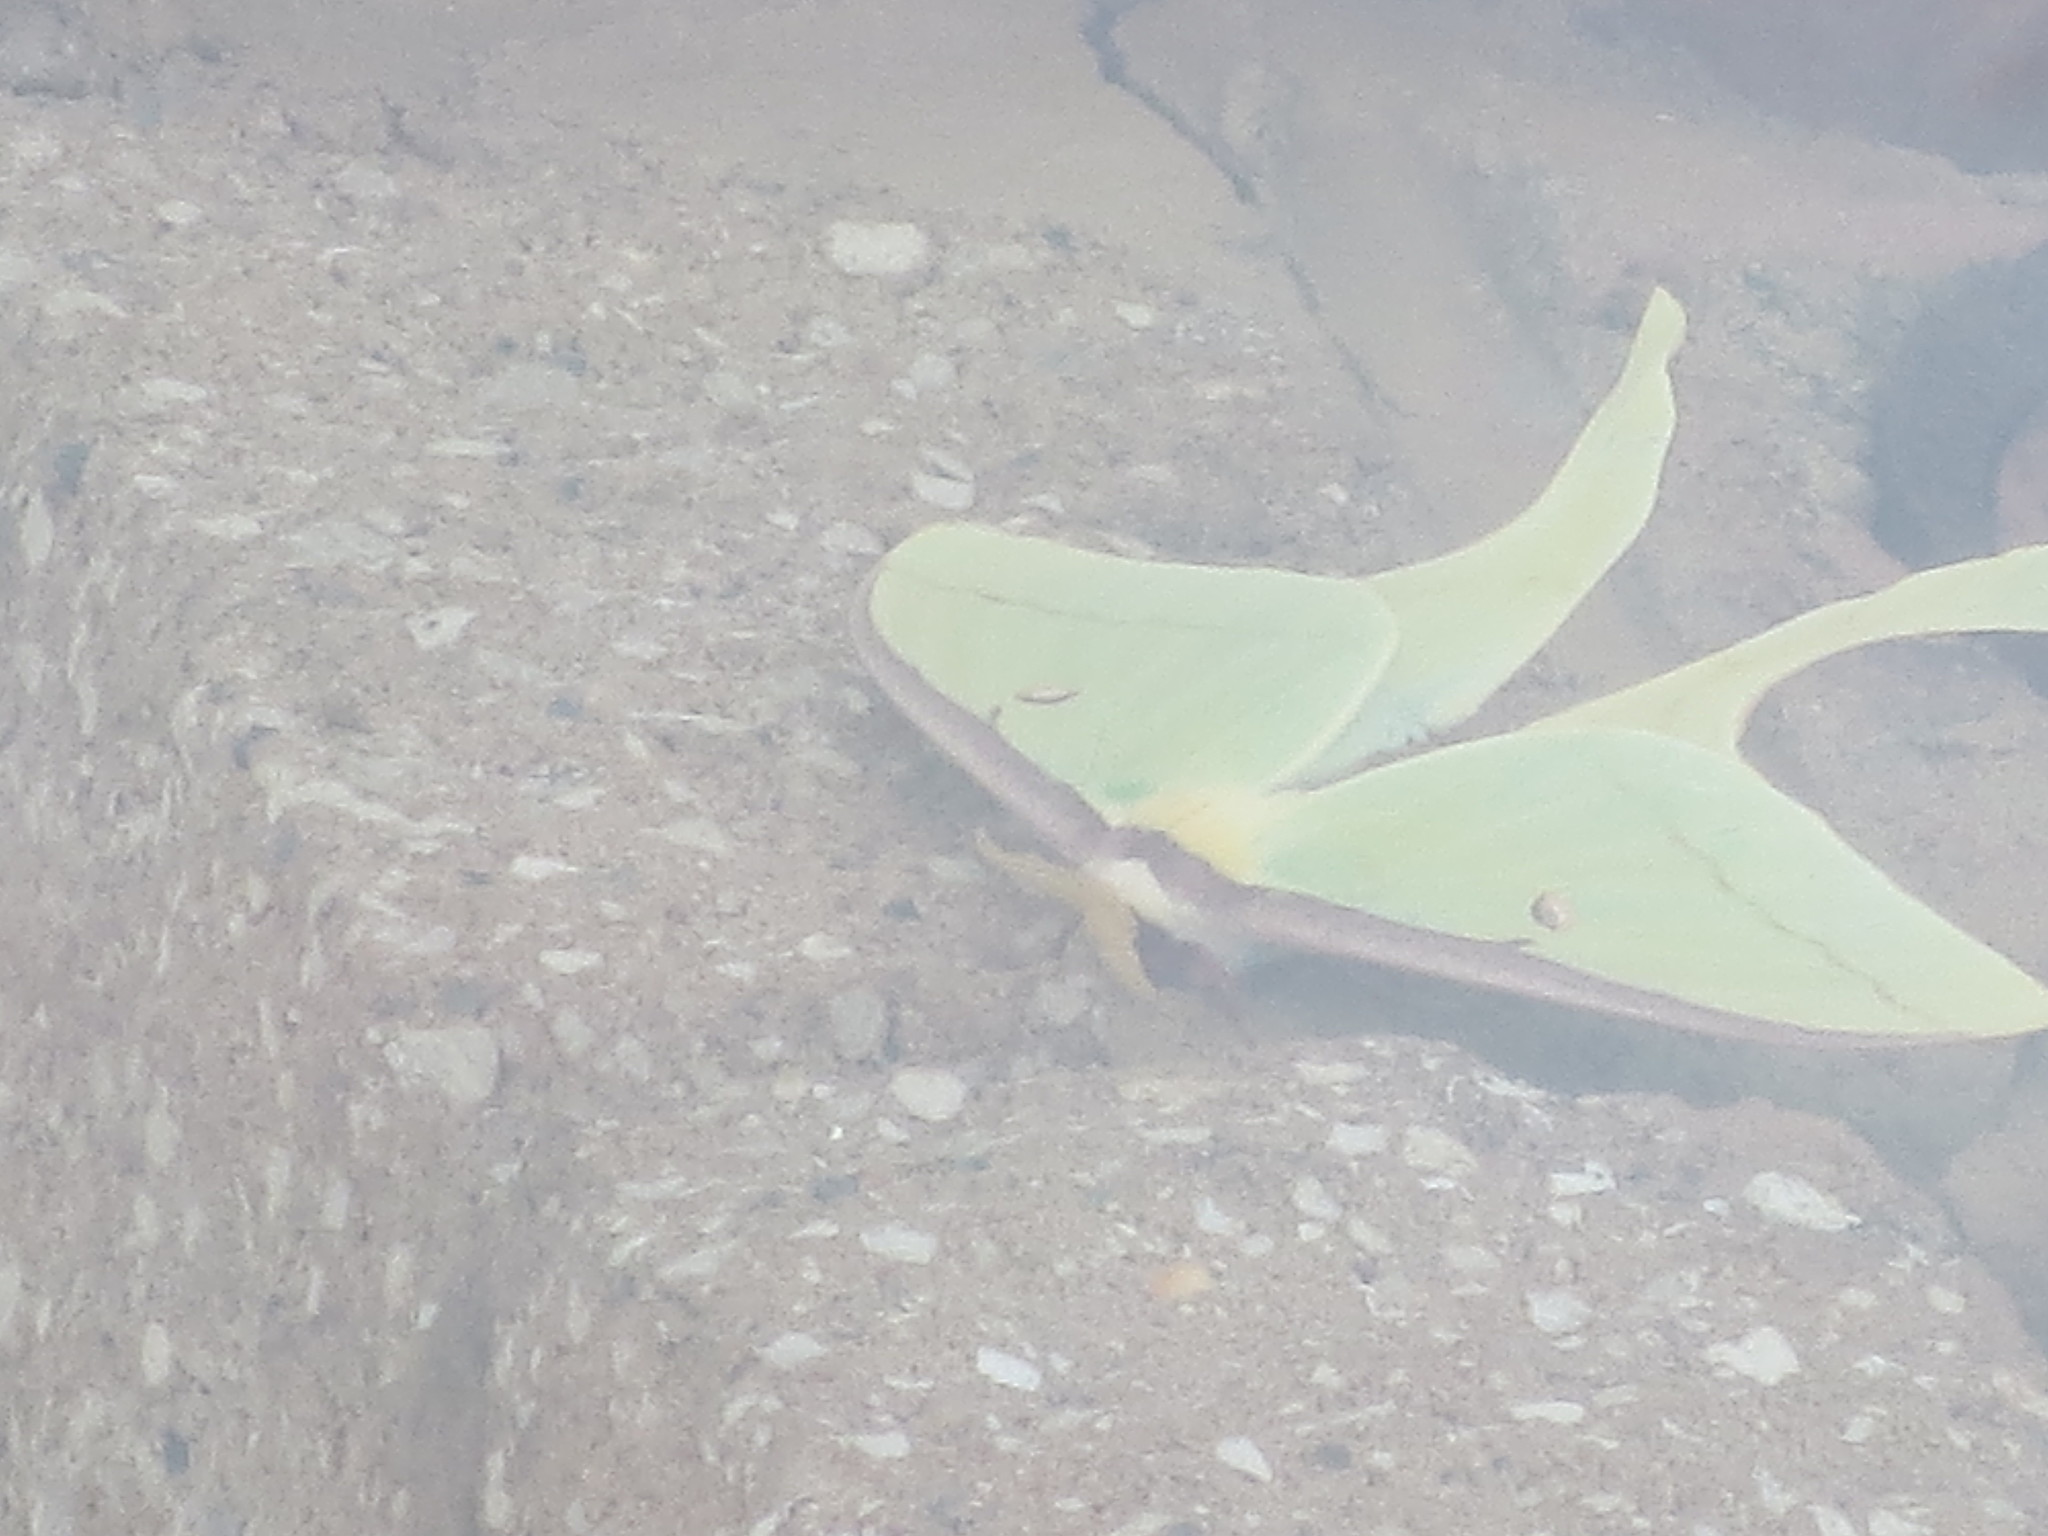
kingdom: Animalia
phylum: Arthropoda
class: Insecta
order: Lepidoptera
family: Saturniidae
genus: Actias
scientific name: Actias luna
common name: Luna moth
